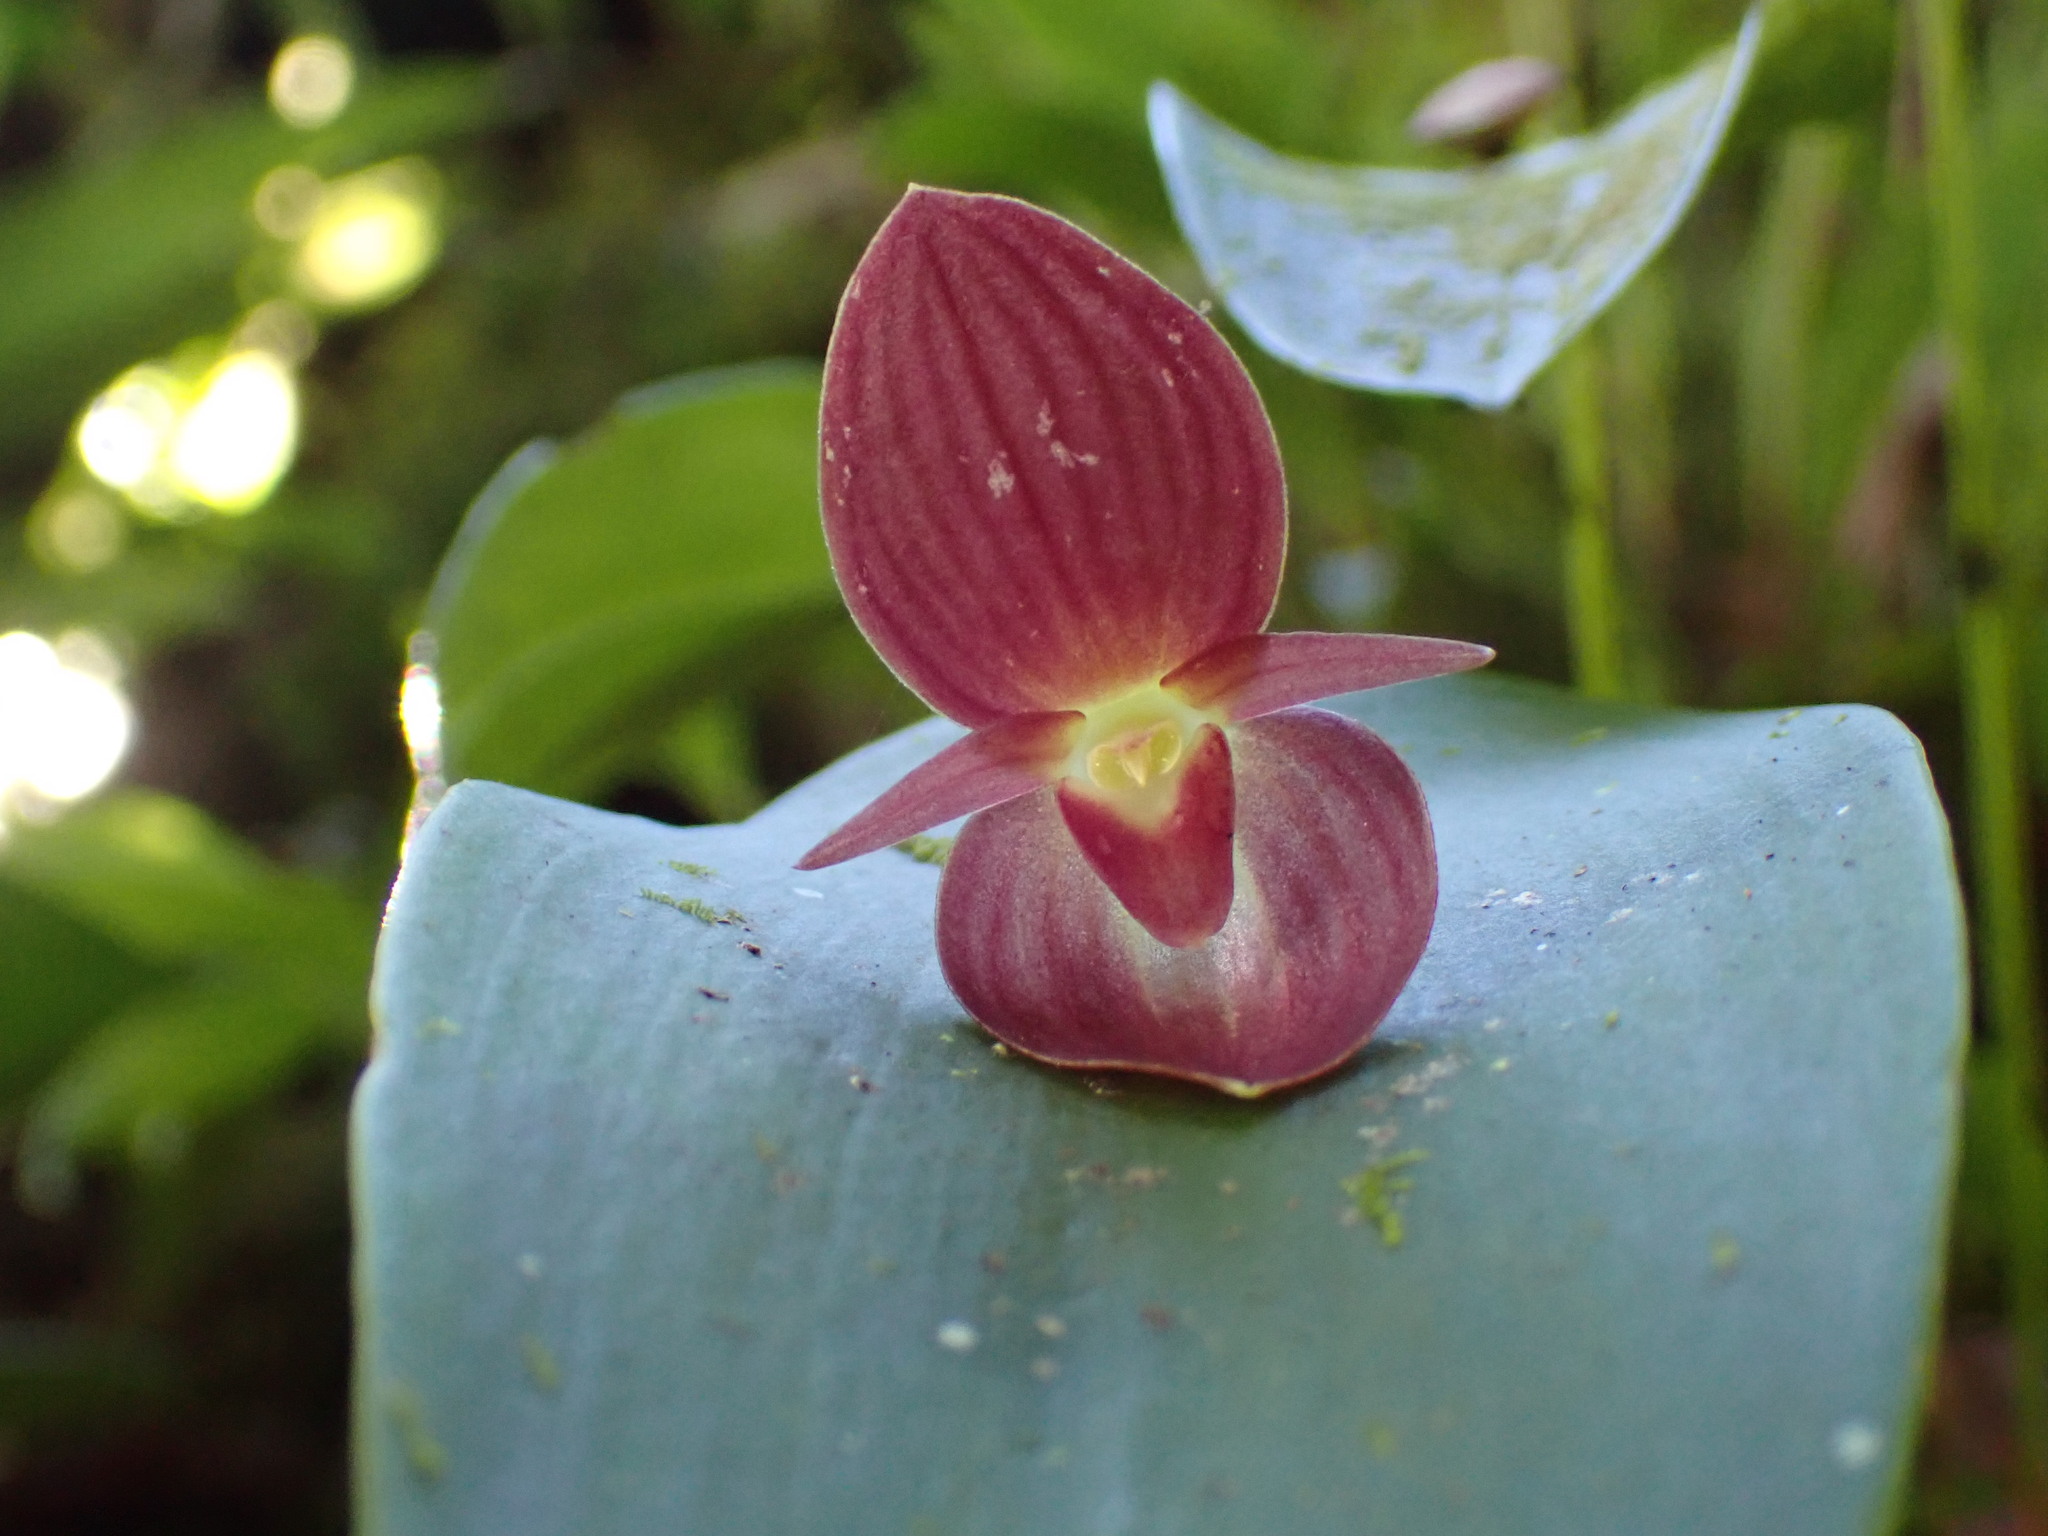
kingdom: Plantae
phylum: Tracheophyta
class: Liliopsida
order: Asparagales
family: Orchidaceae
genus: Pleurothallis
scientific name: Pleurothallis gonzaleziorum
